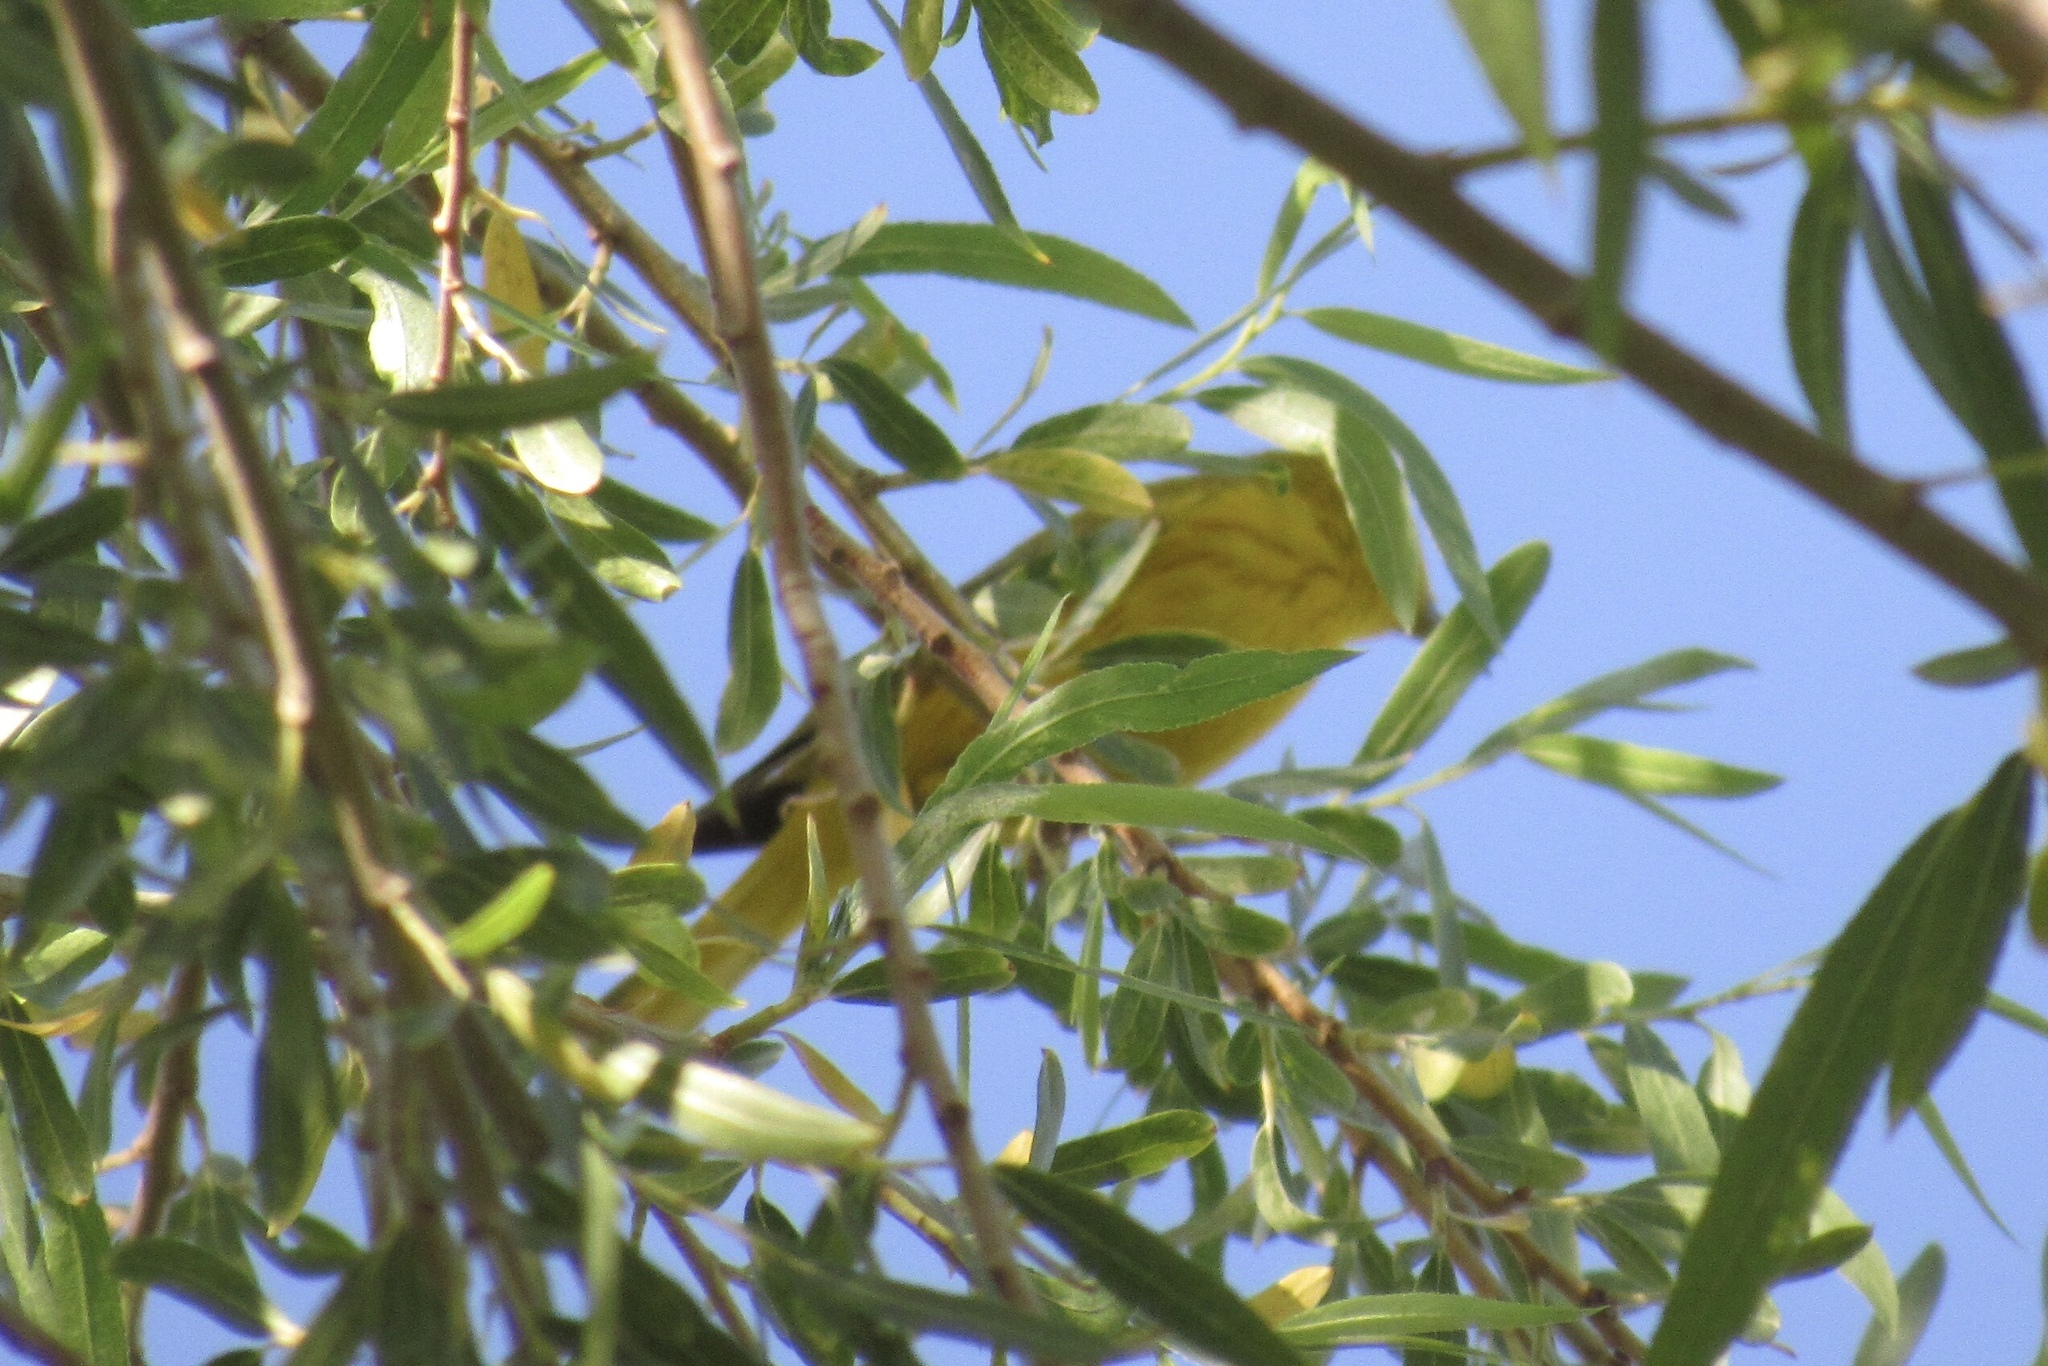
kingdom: Animalia
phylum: Chordata
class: Aves
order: Passeriformes
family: Parulidae
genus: Setophaga
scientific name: Setophaga petechia
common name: Yellow warbler
